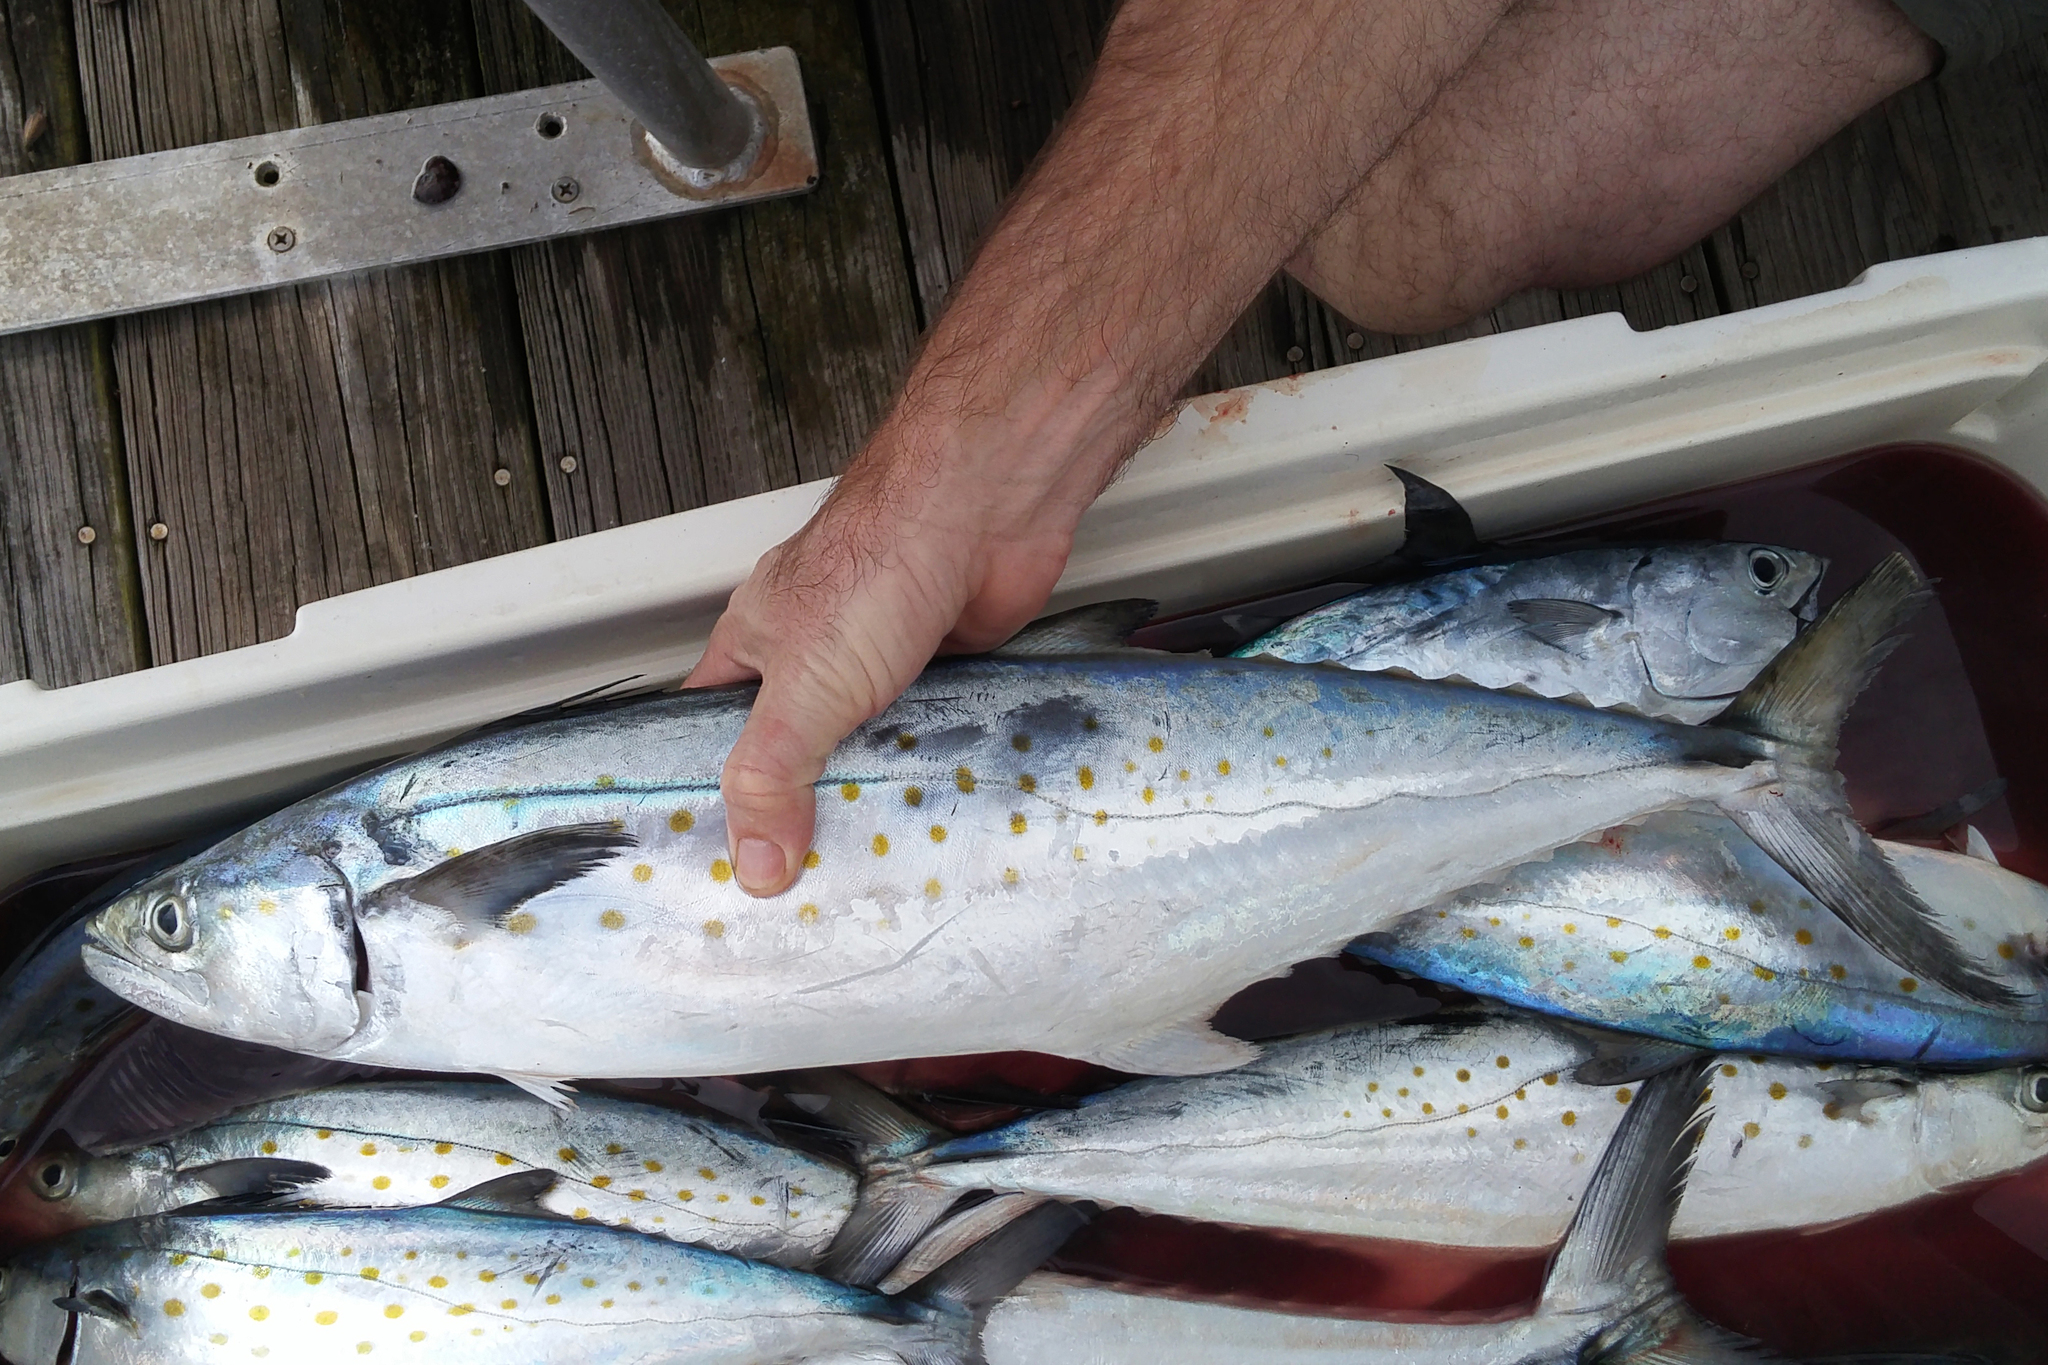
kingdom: Animalia
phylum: Chordata
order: Perciformes
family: Scombridae
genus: Scomberomorus
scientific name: Scomberomorus maculatus
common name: Spanish mackerel
